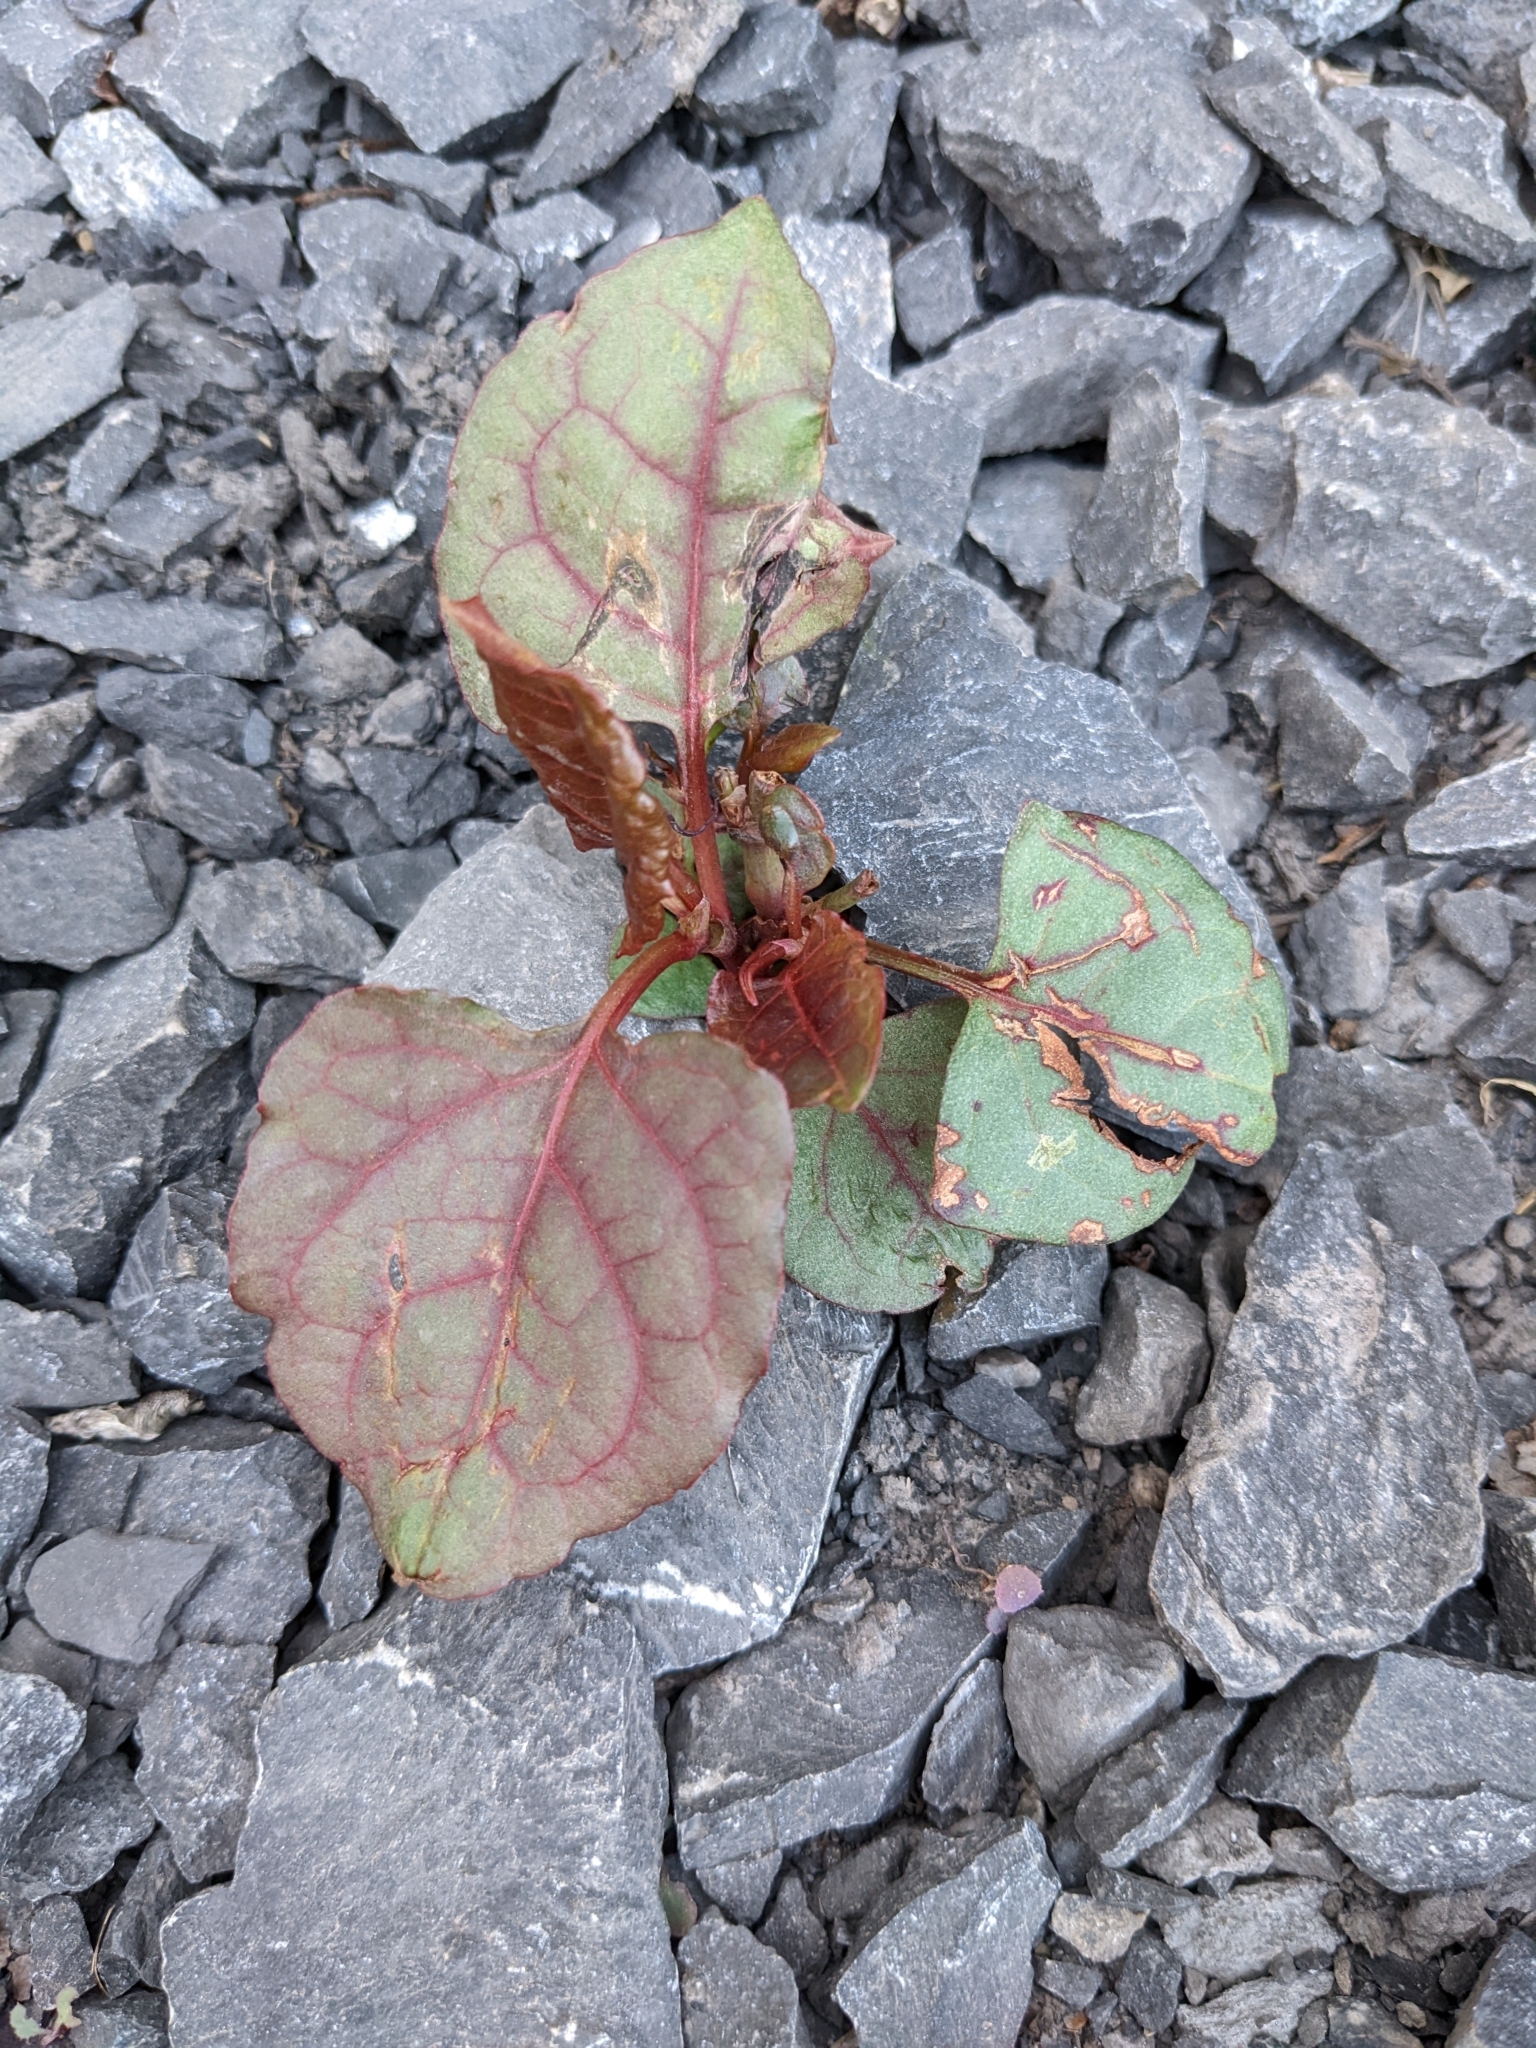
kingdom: Plantae
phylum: Tracheophyta
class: Magnoliopsida
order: Caryophyllales
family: Polygonaceae
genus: Reynoutria
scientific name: Reynoutria japonica
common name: Japanese knotweed
